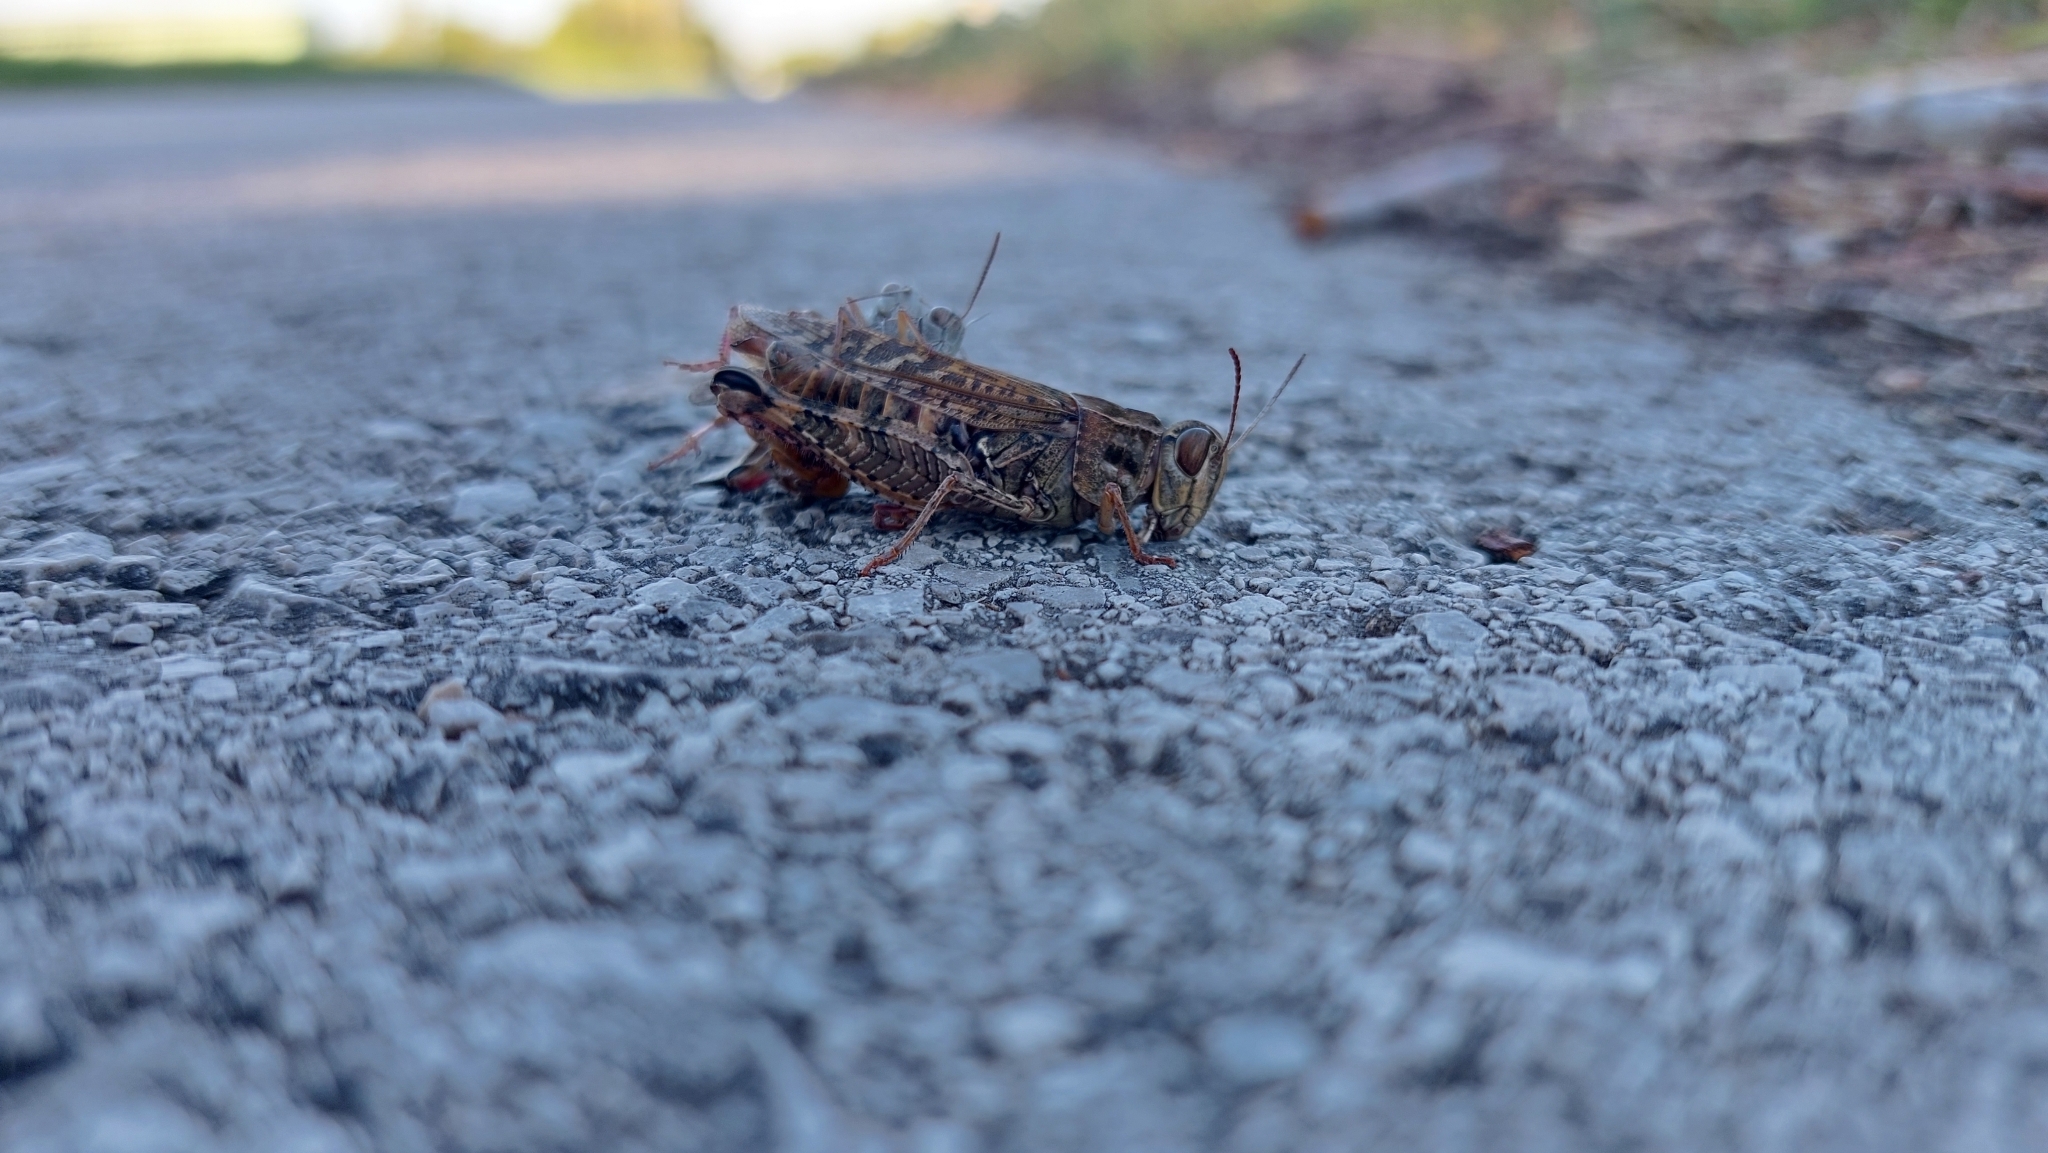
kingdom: Animalia
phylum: Arthropoda
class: Insecta
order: Orthoptera
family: Acrididae
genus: Calliptamus
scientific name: Calliptamus italicus
